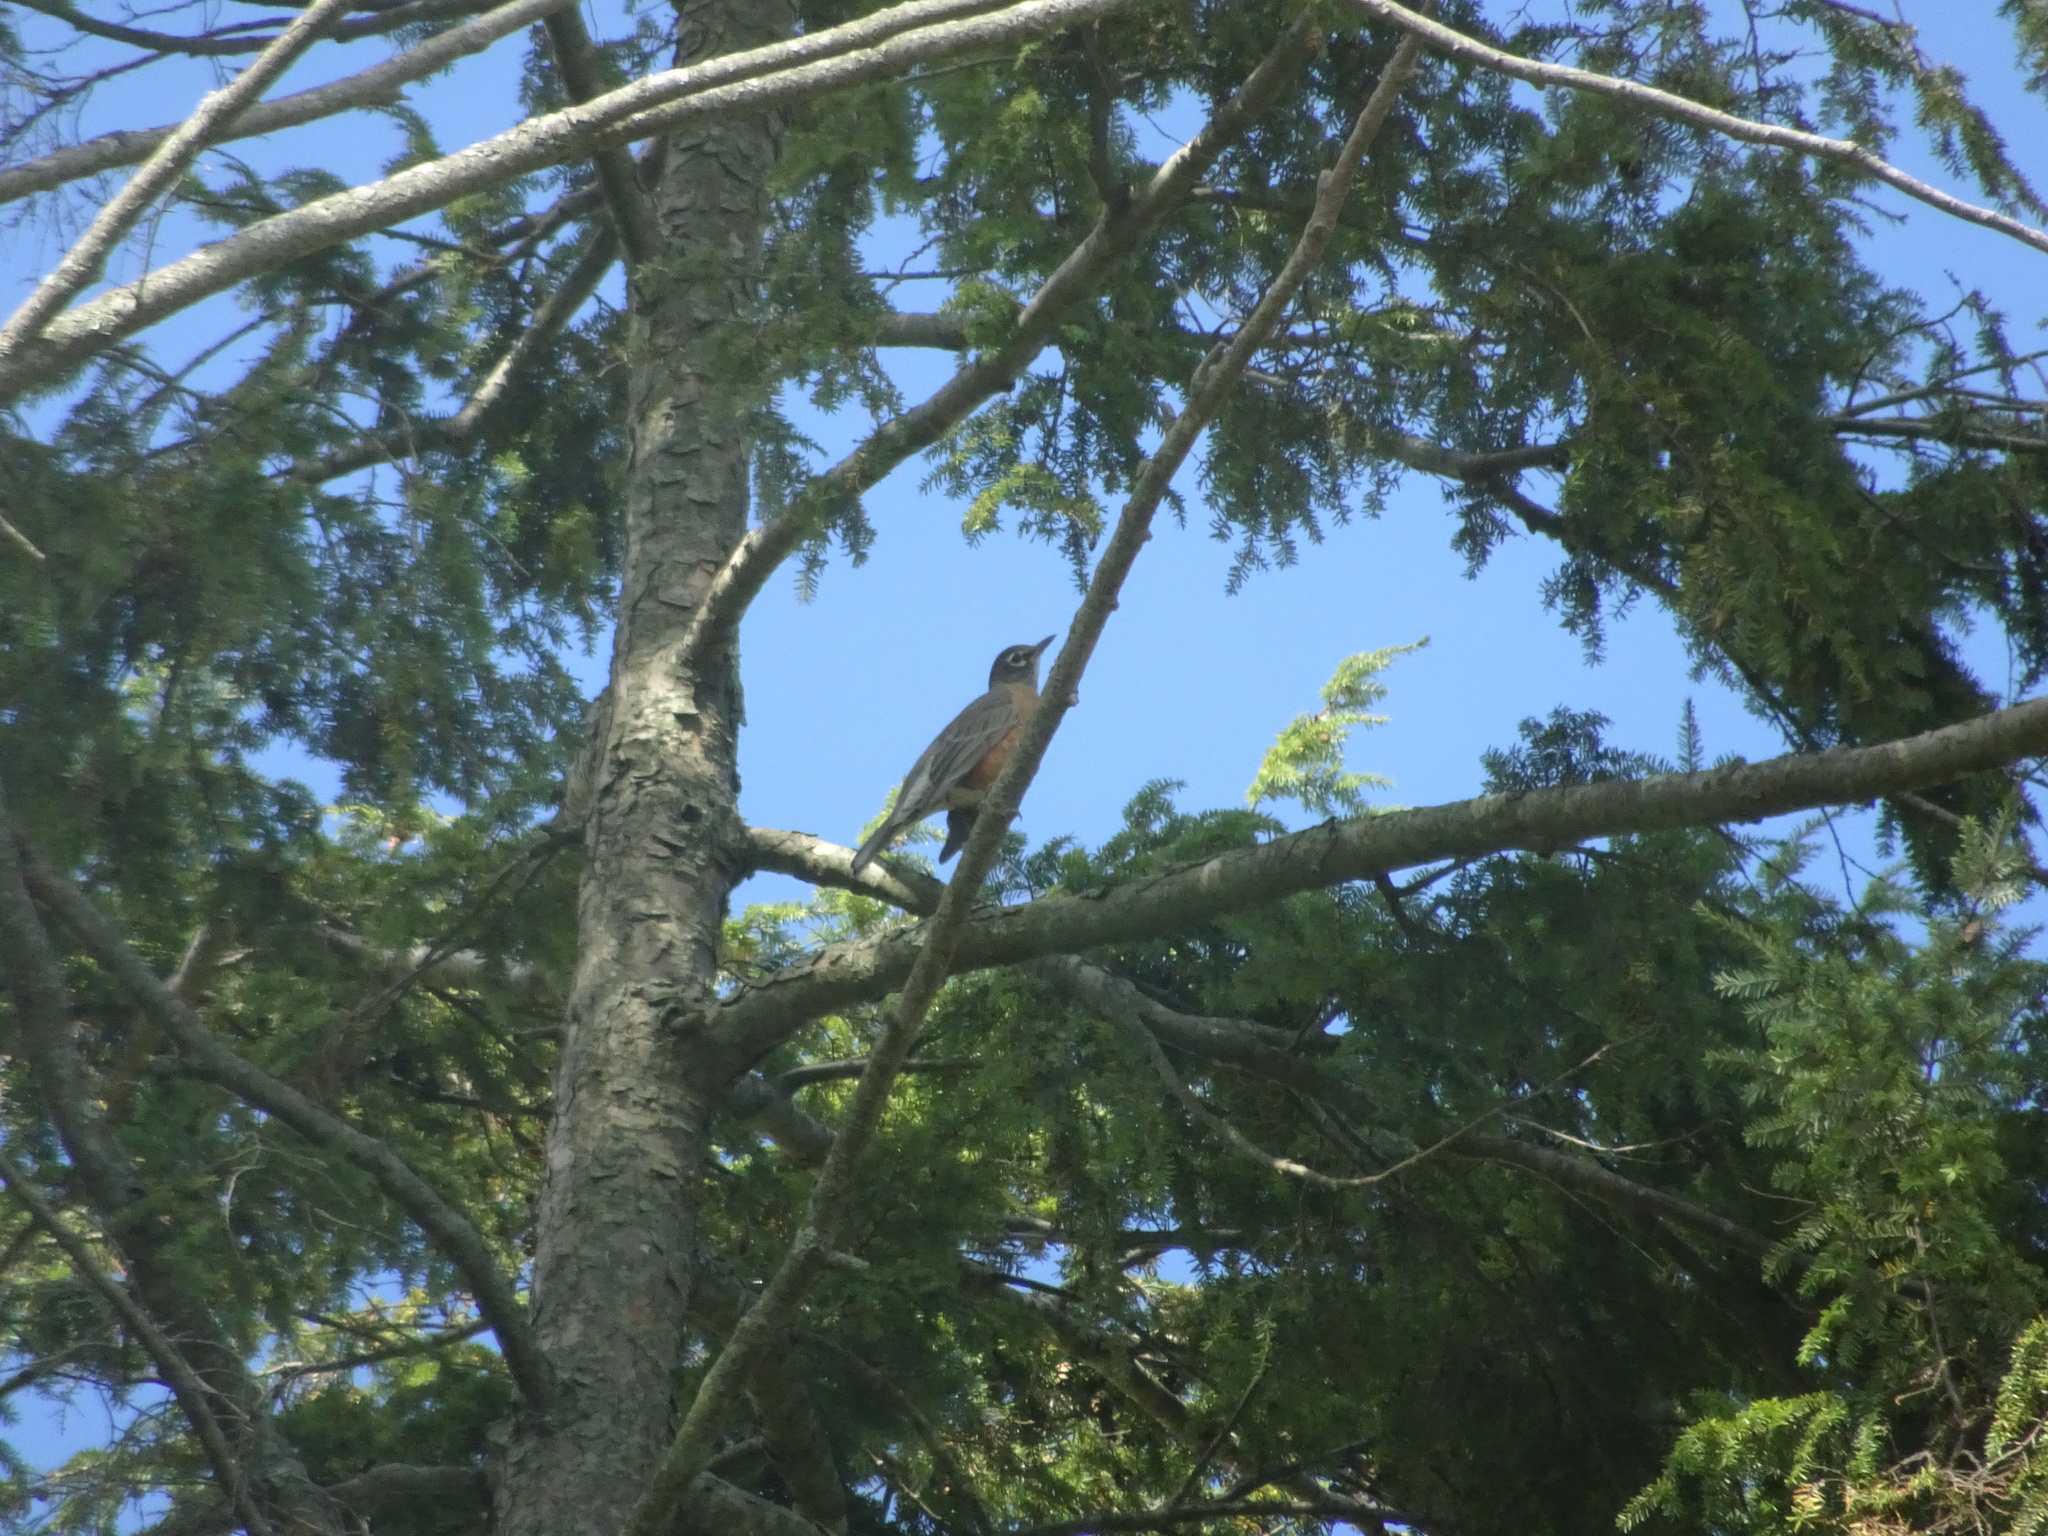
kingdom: Animalia
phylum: Chordata
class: Aves
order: Passeriformes
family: Turdidae
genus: Turdus
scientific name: Turdus migratorius
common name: American robin
